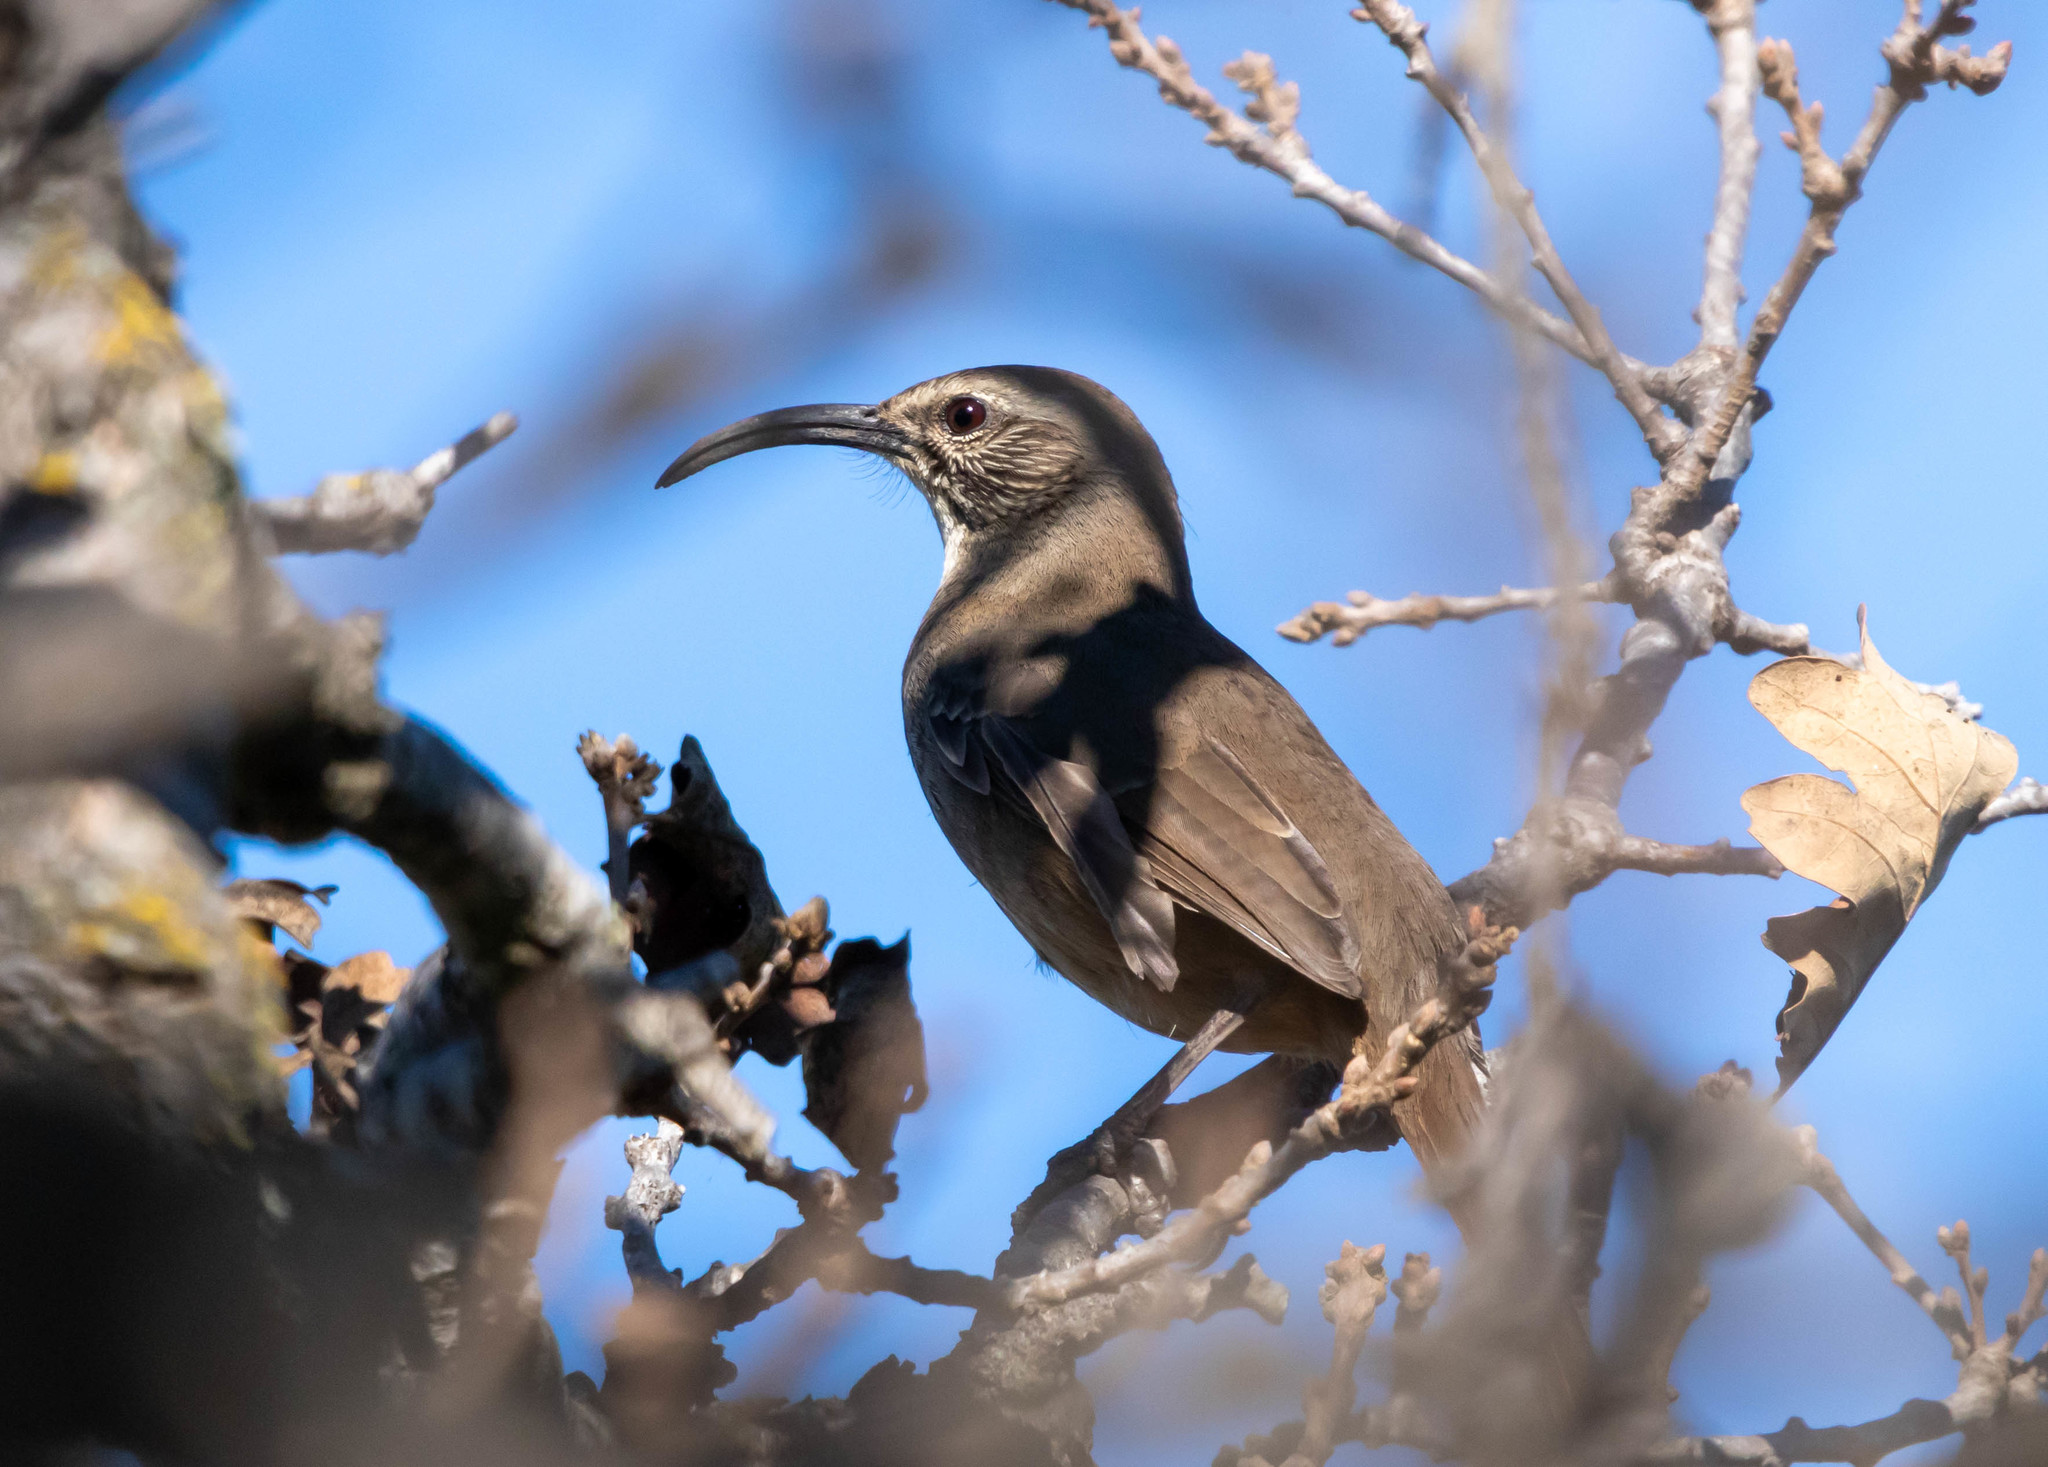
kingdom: Animalia
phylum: Chordata
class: Aves
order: Passeriformes
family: Mimidae
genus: Toxostoma
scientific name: Toxostoma redivivum
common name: California thrasher
